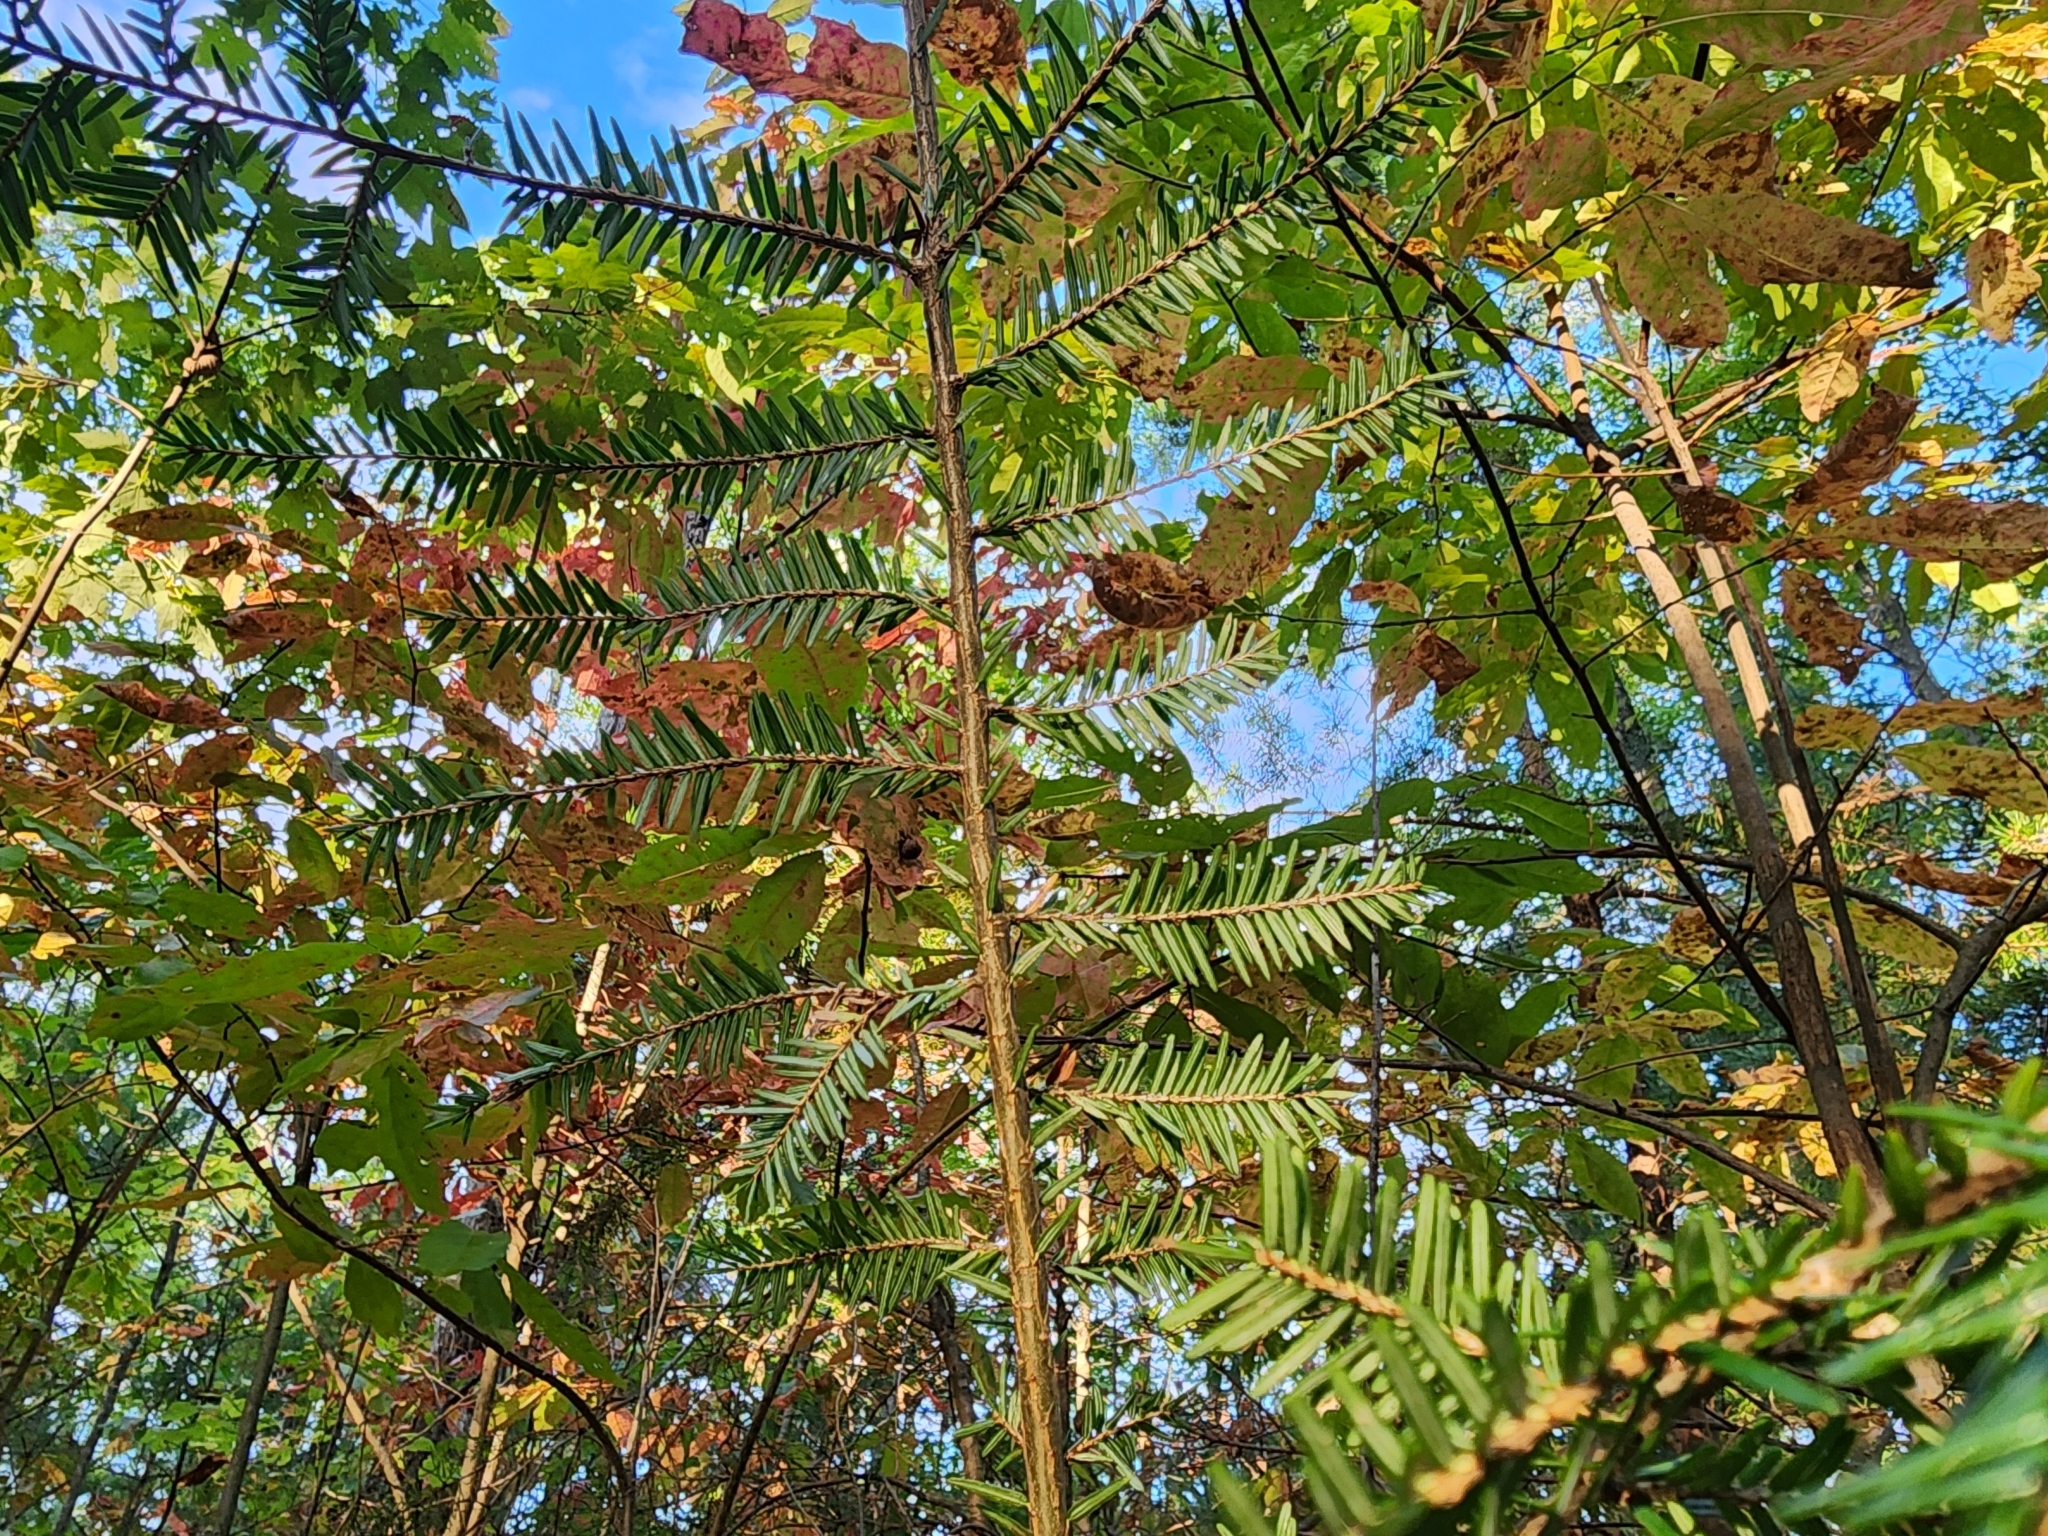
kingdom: Plantae
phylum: Tracheophyta
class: Pinopsida
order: Pinales
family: Pinaceae
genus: Tsuga
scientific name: Tsuga canadensis
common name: Eastern hemlock
